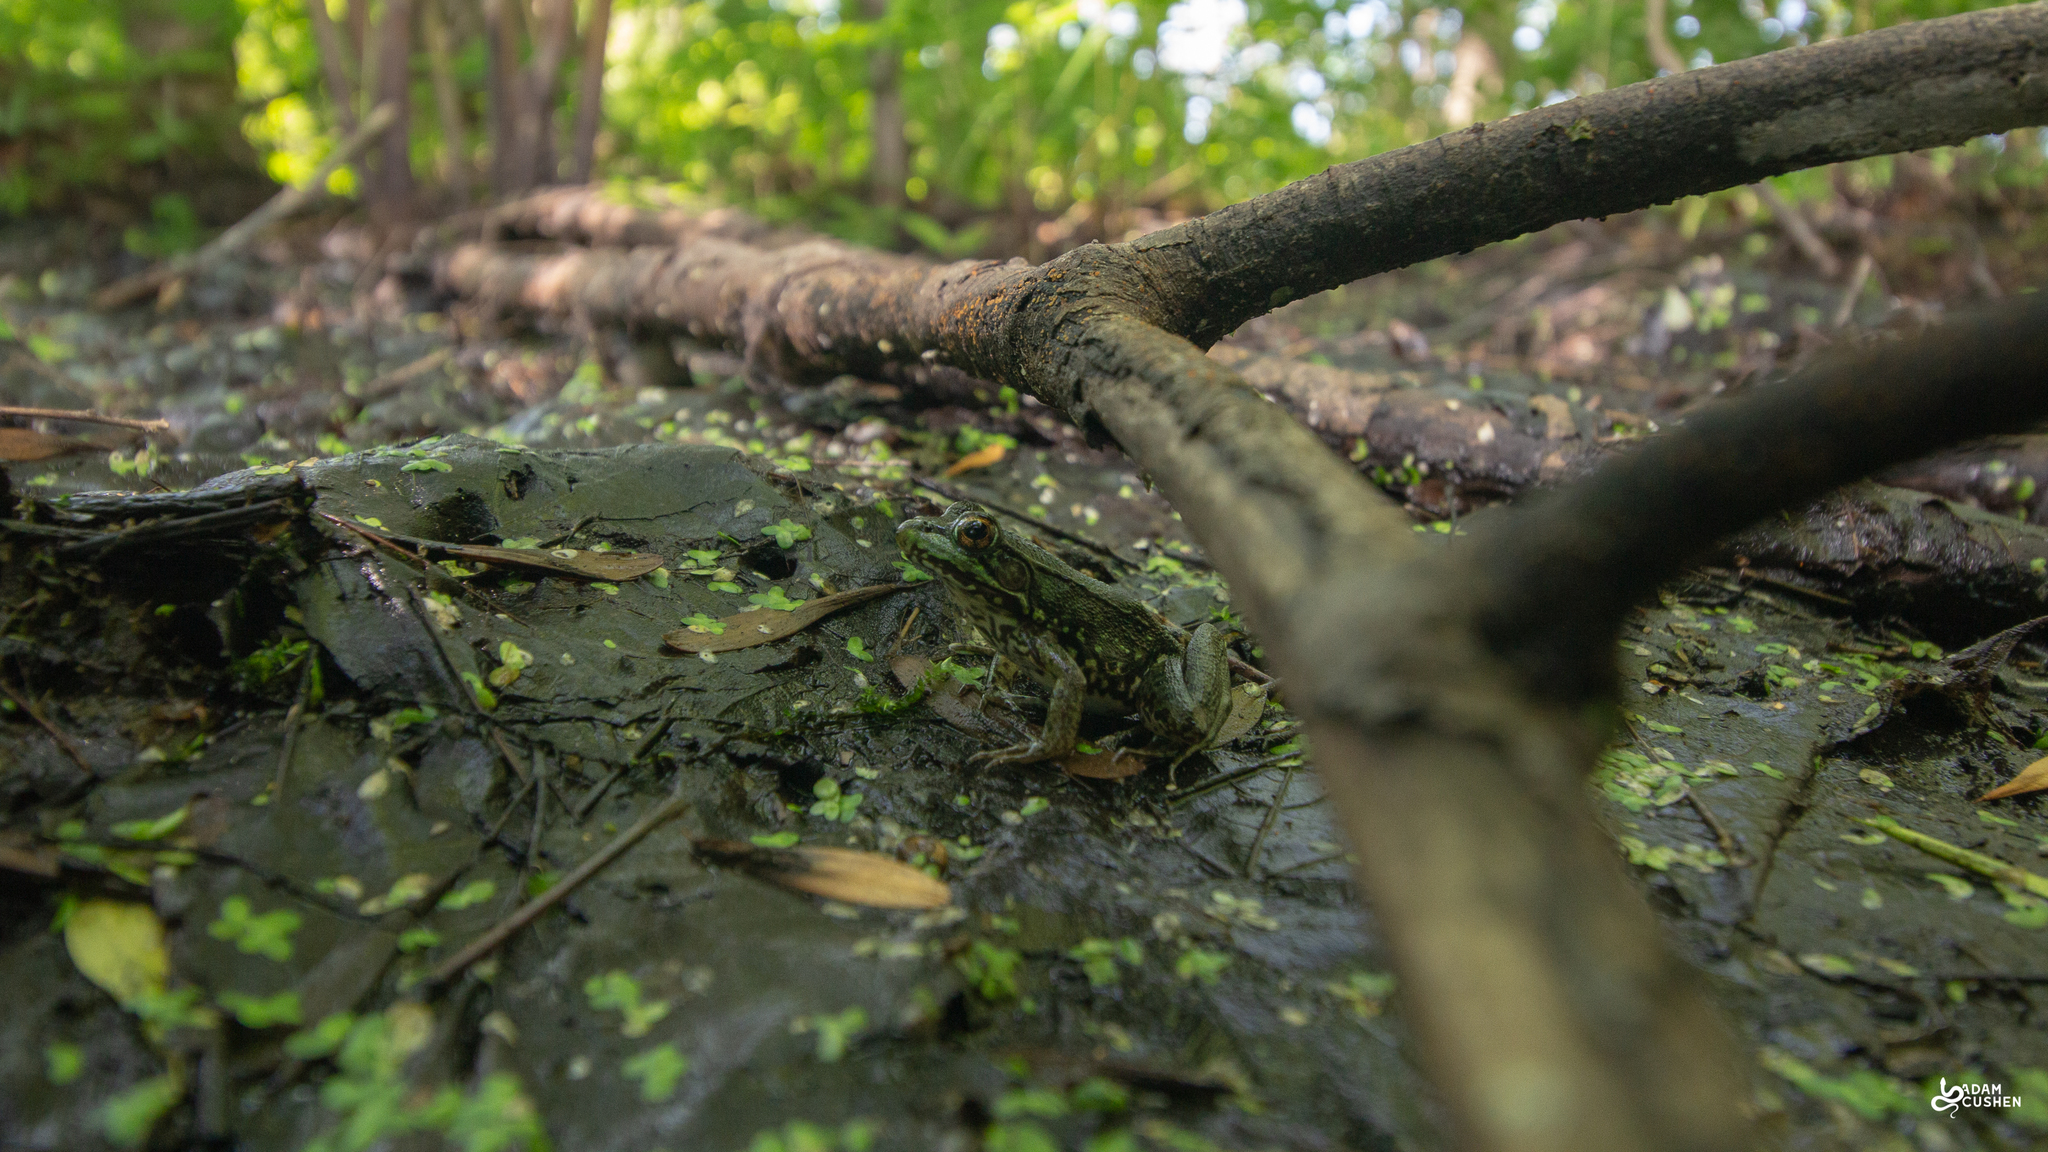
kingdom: Animalia
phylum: Chordata
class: Amphibia
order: Anura
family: Ranidae
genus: Lithobates
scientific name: Lithobates clamitans
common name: Green frog
